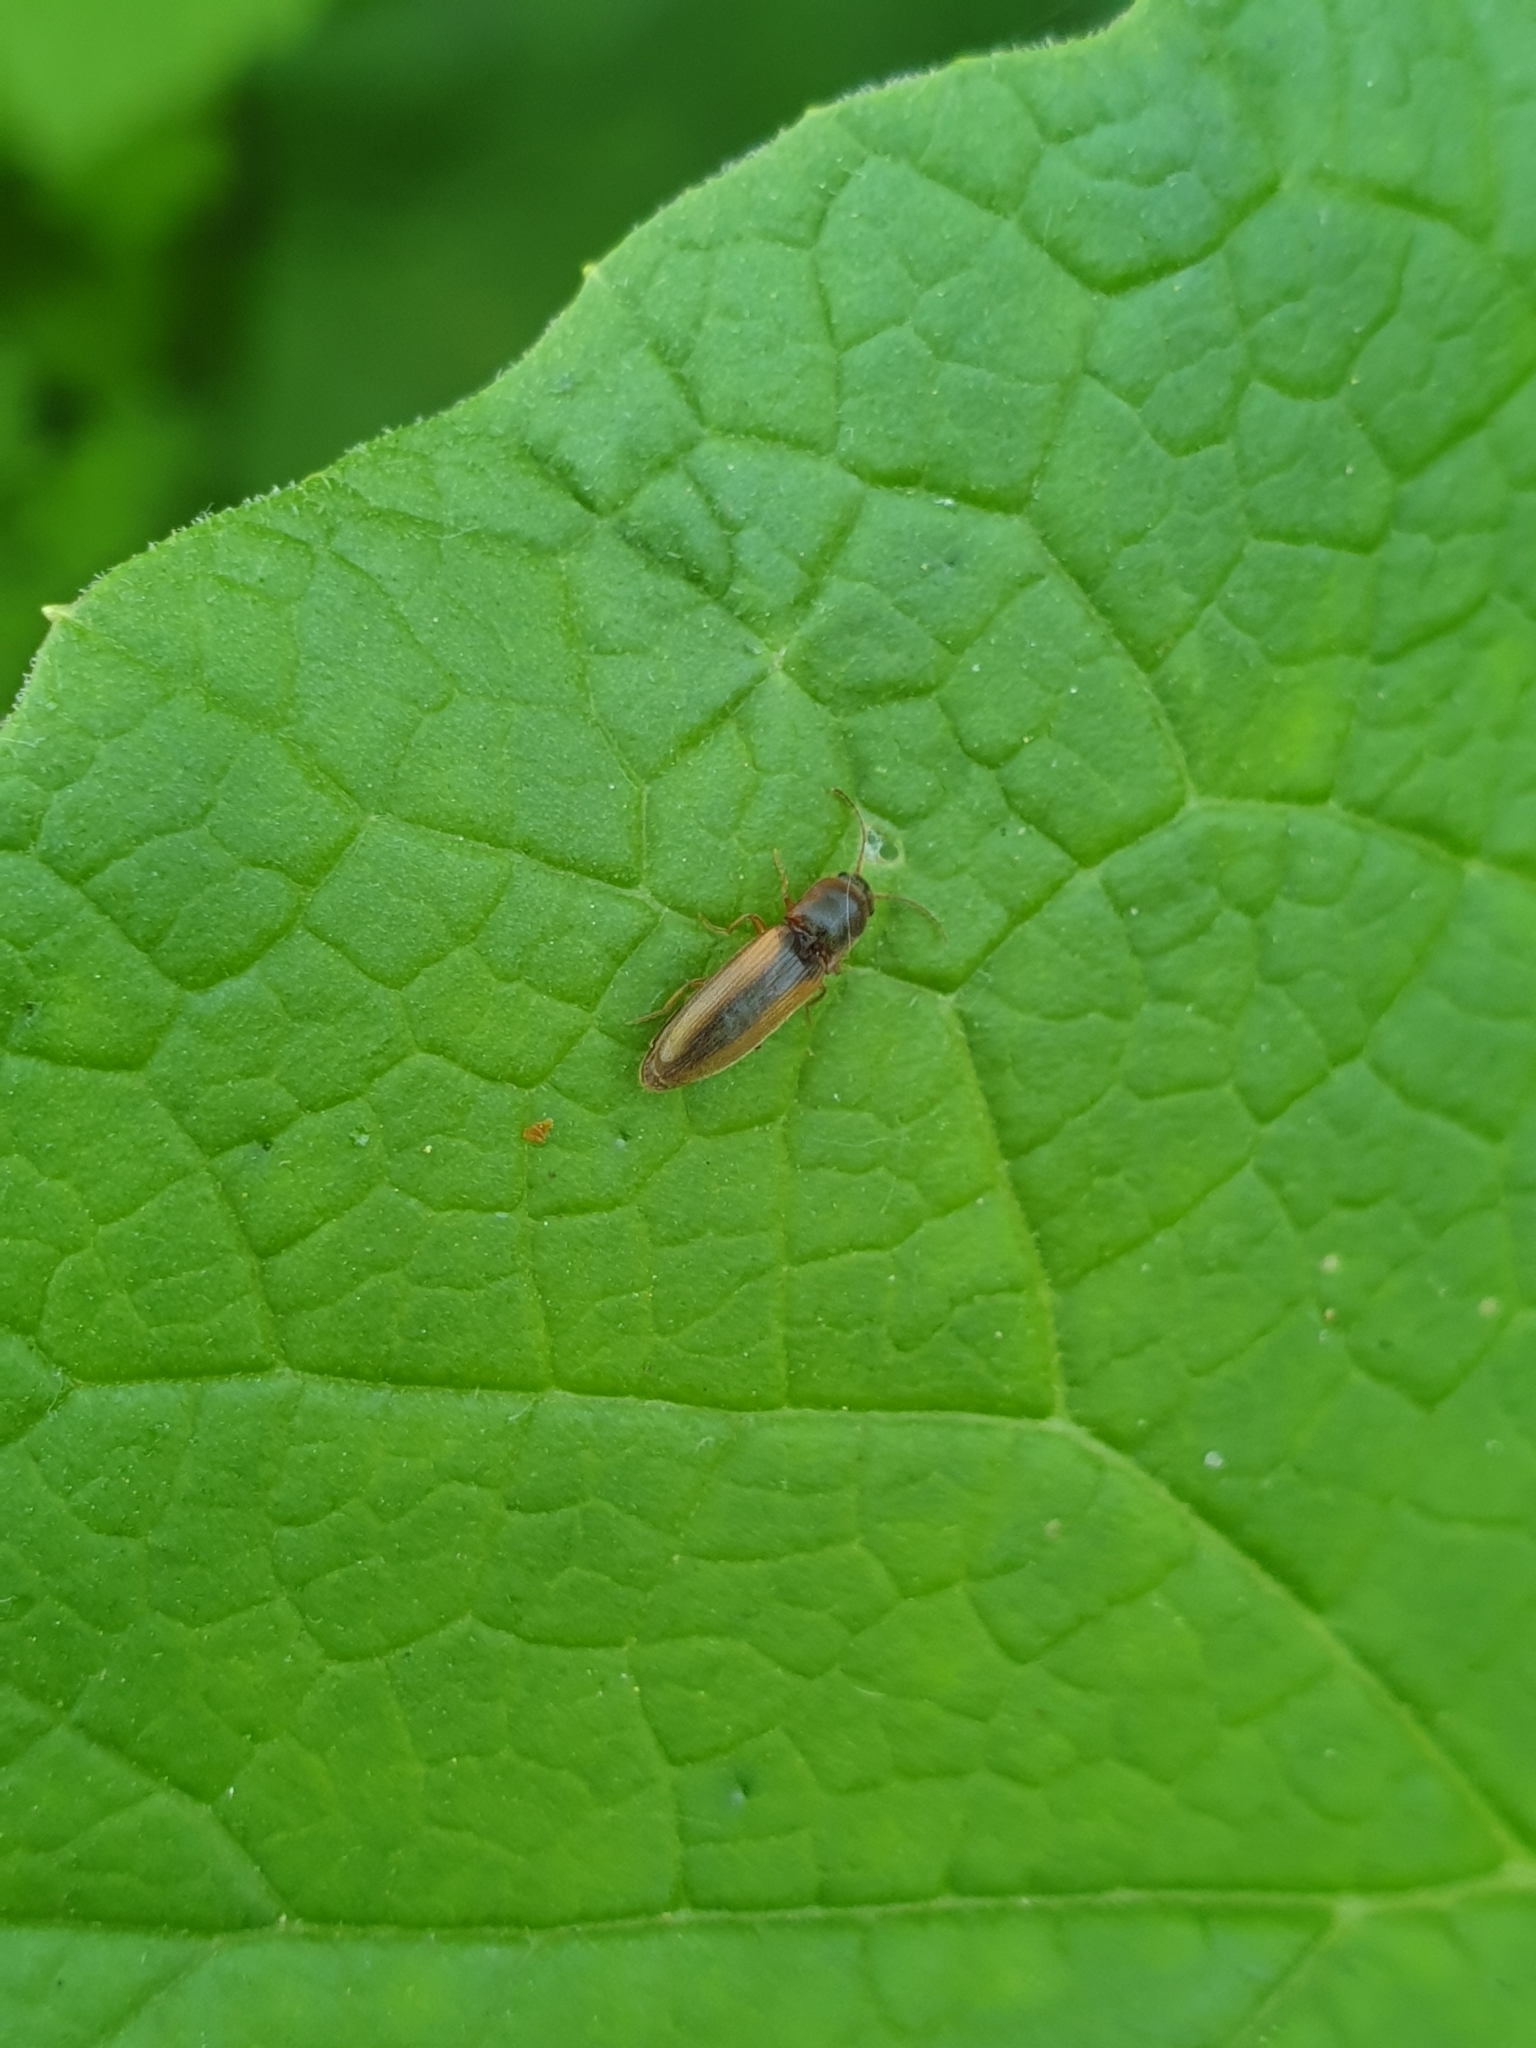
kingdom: Animalia
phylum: Arthropoda
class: Insecta
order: Coleoptera
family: Elateridae
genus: Dalopius
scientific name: Dalopius marginatus
